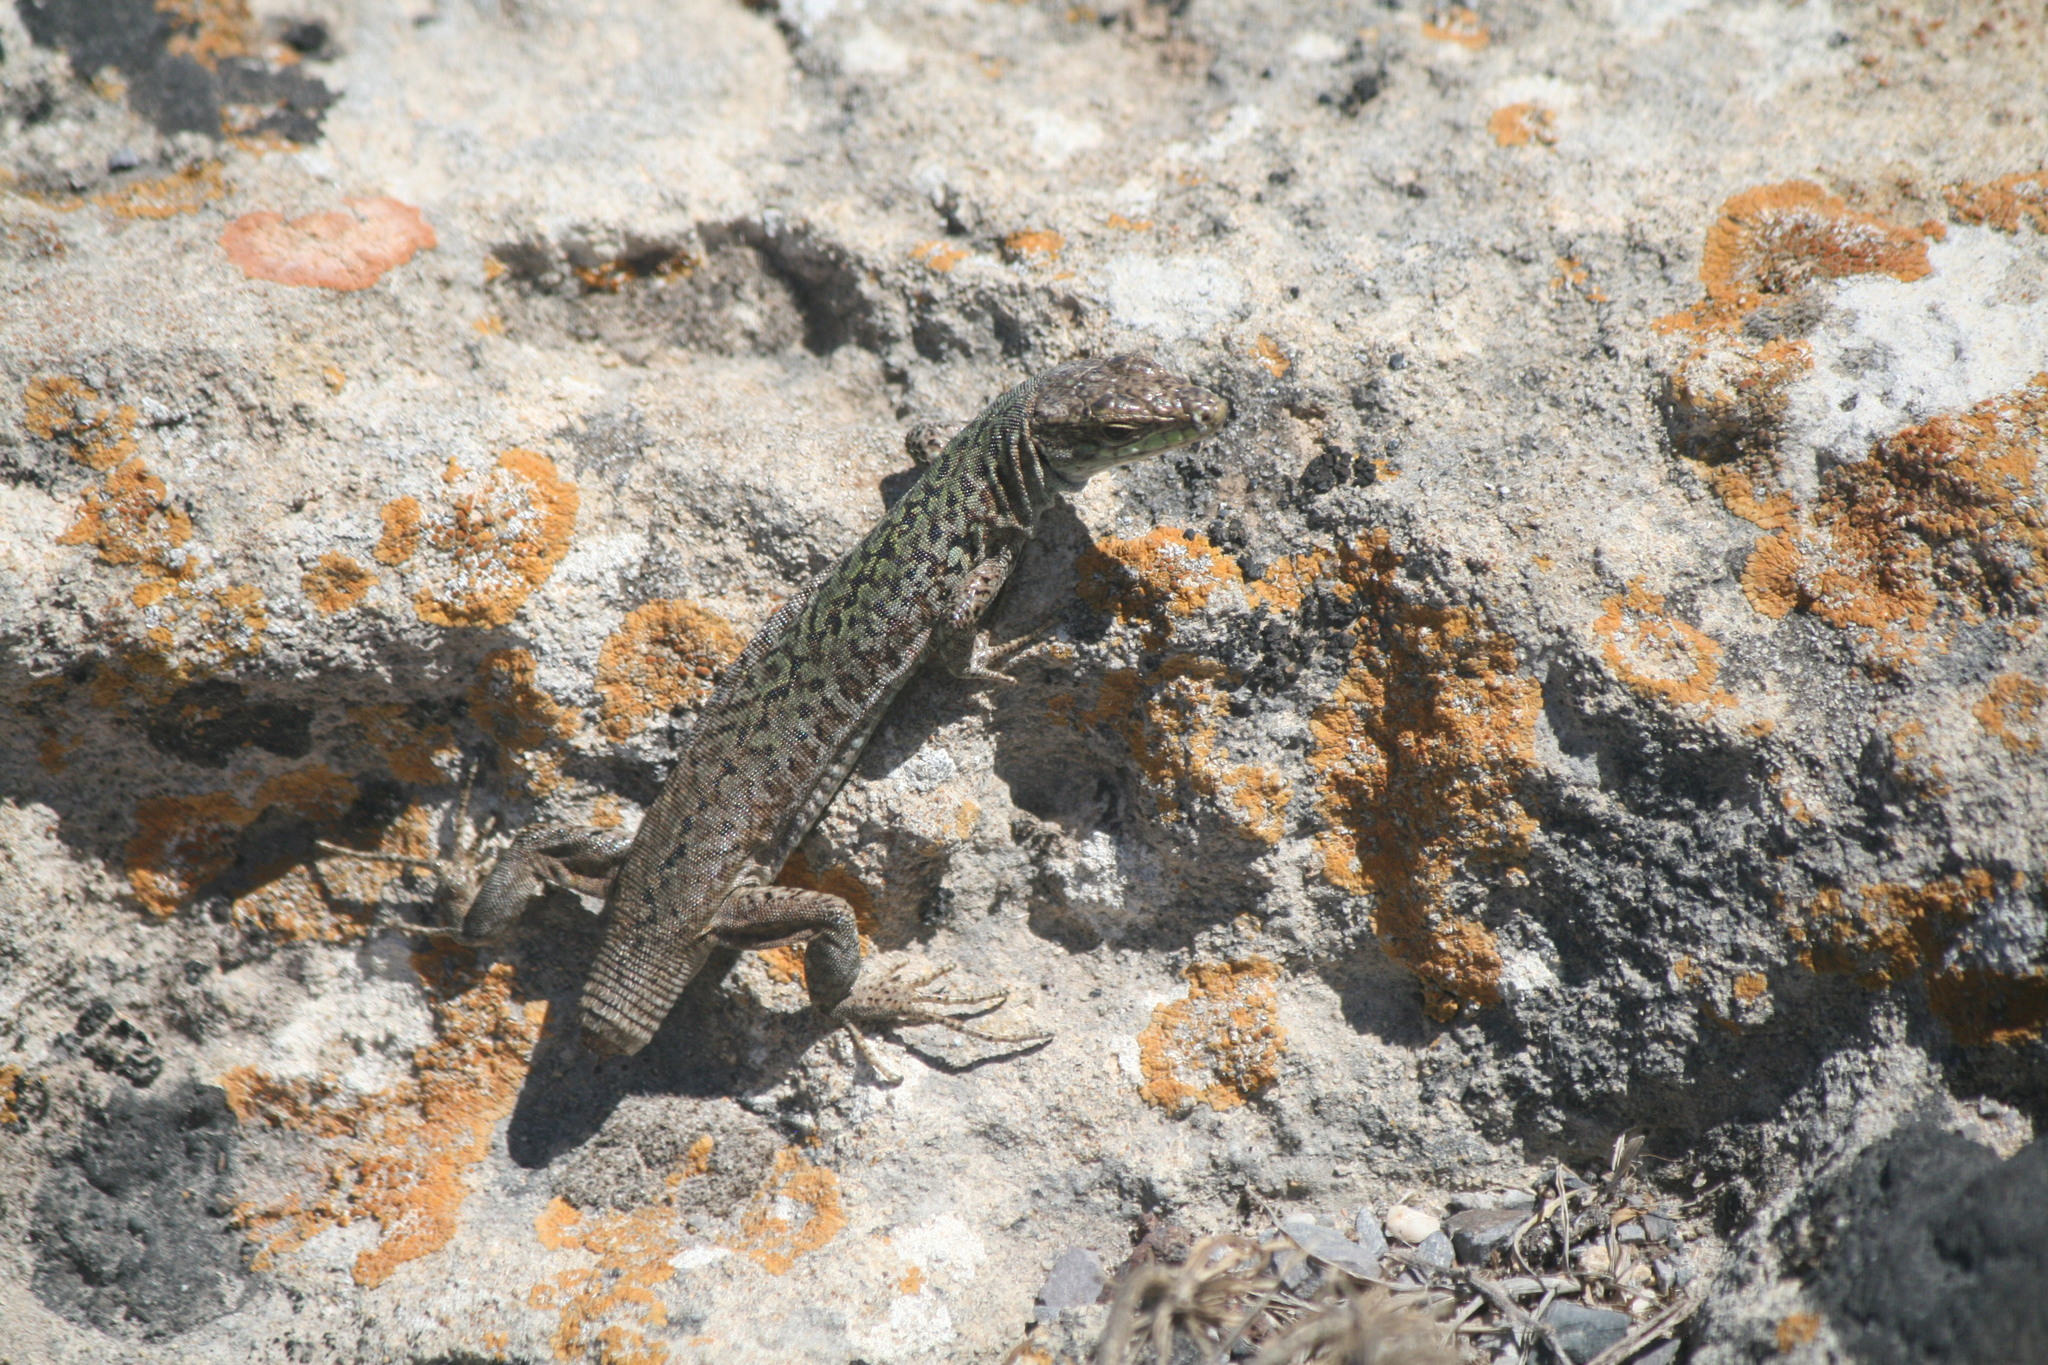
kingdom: Animalia
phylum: Chordata
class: Squamata
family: Lacertidae
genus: Podarcis
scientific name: Podarcis siculus
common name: Italian wall lizard
